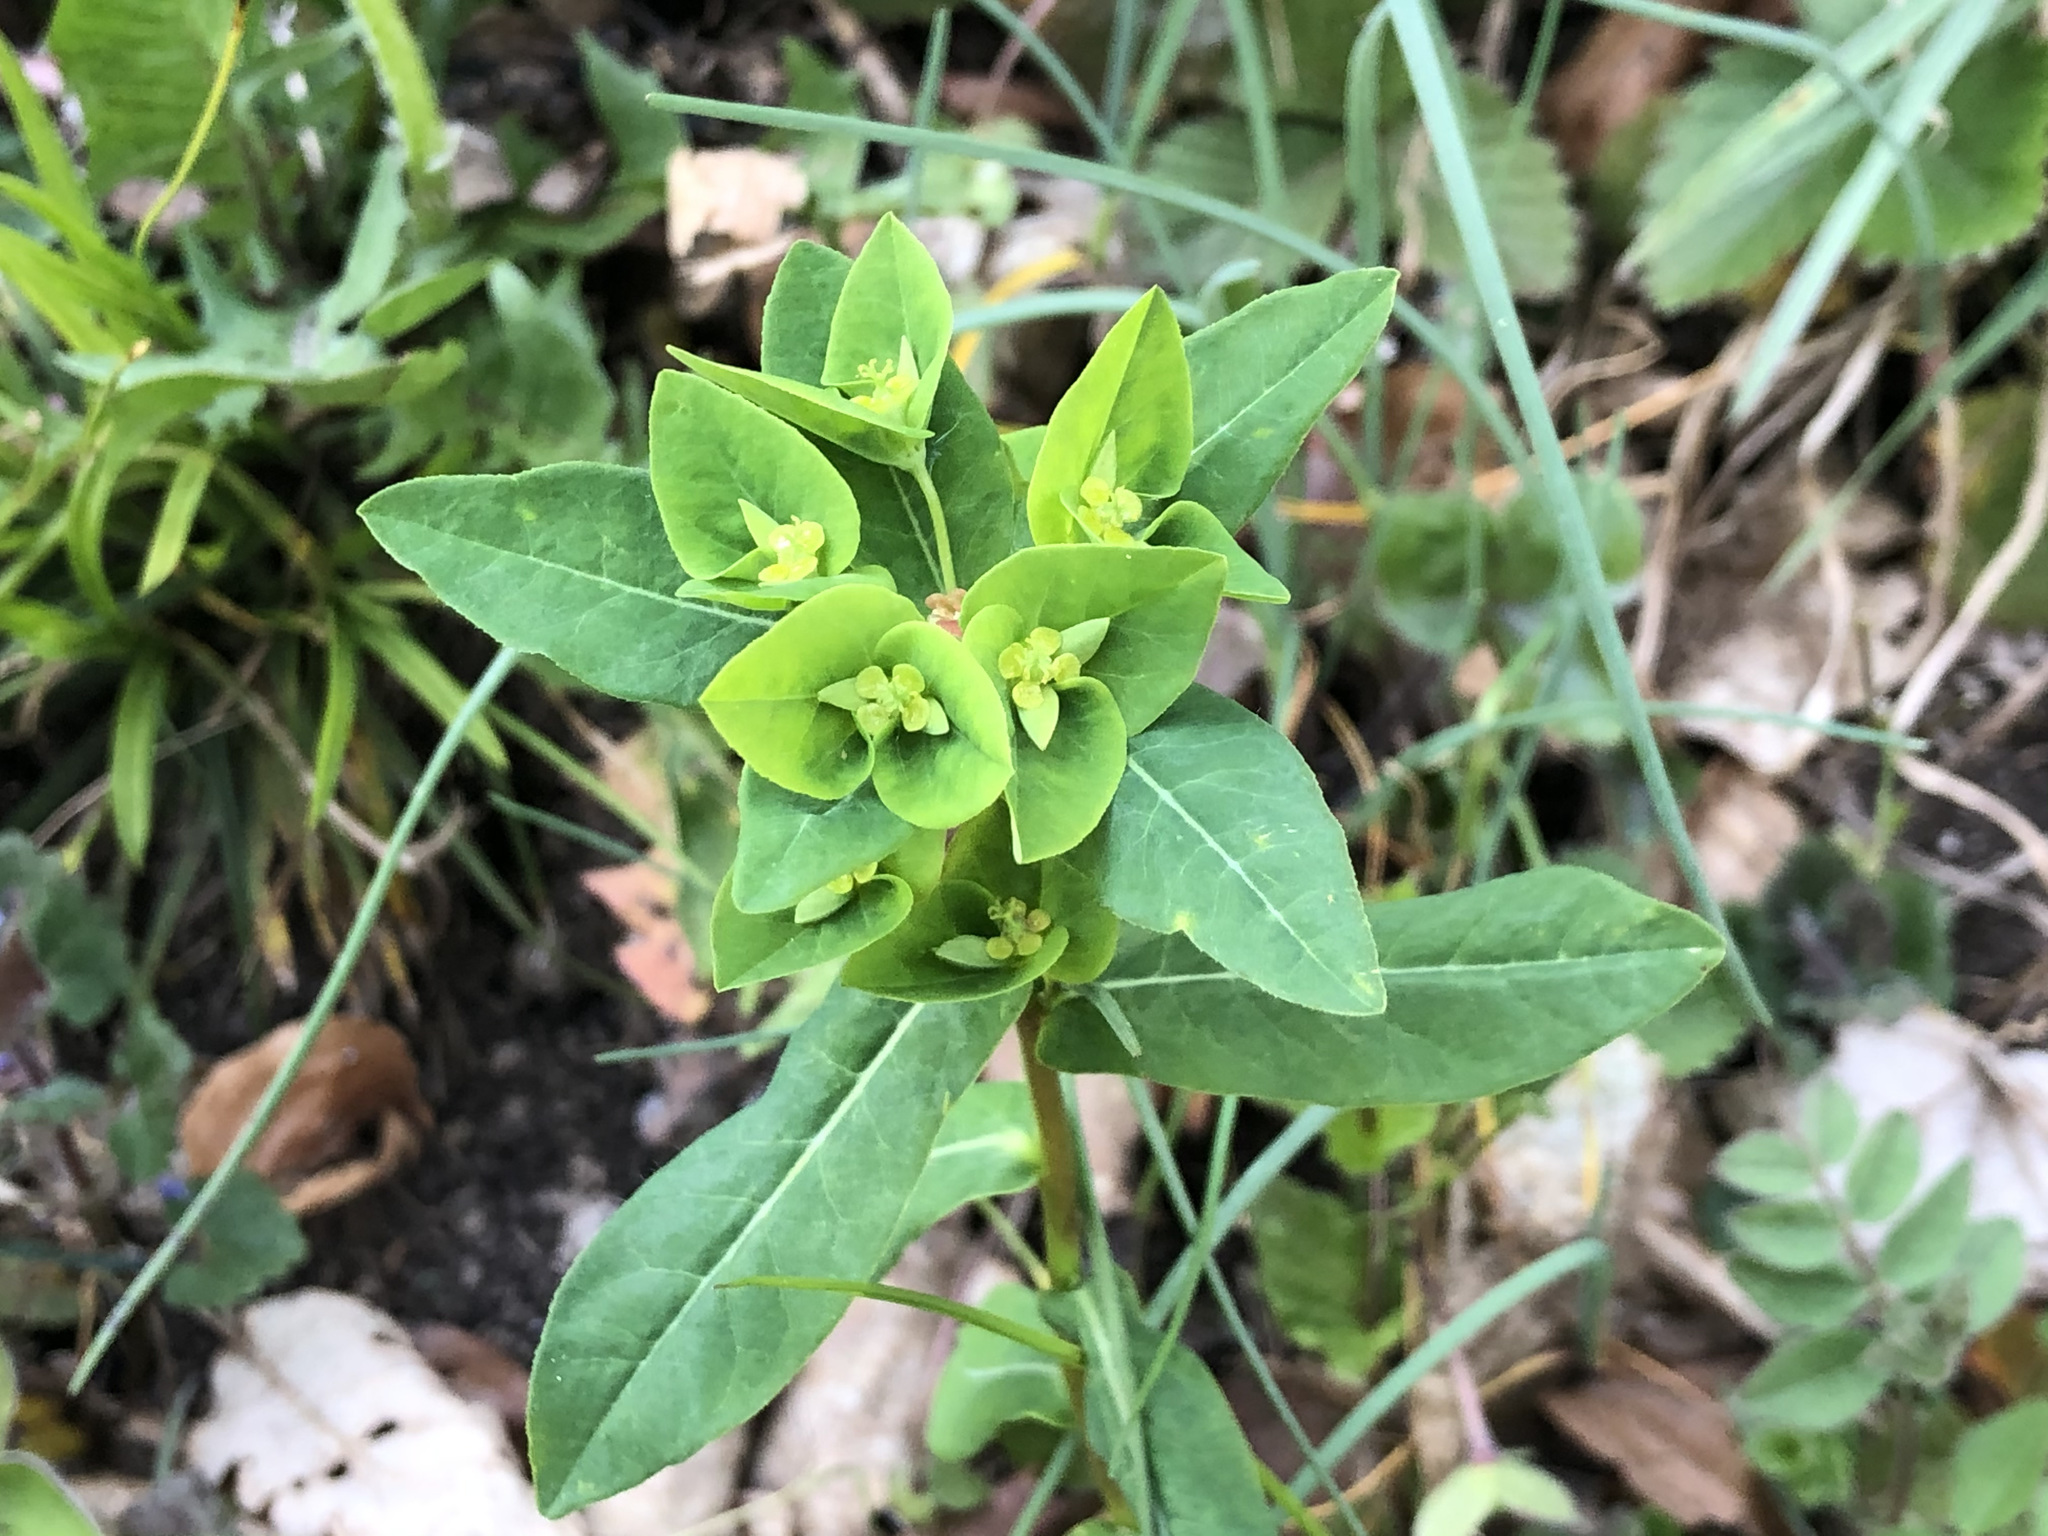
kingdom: Plantae
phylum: Tracheophyta
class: Magnoliopsida
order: Malpighiales
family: Euphorbiaceae
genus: Euphorbia
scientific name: Euphorbia dulcis
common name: Sweet spurge
